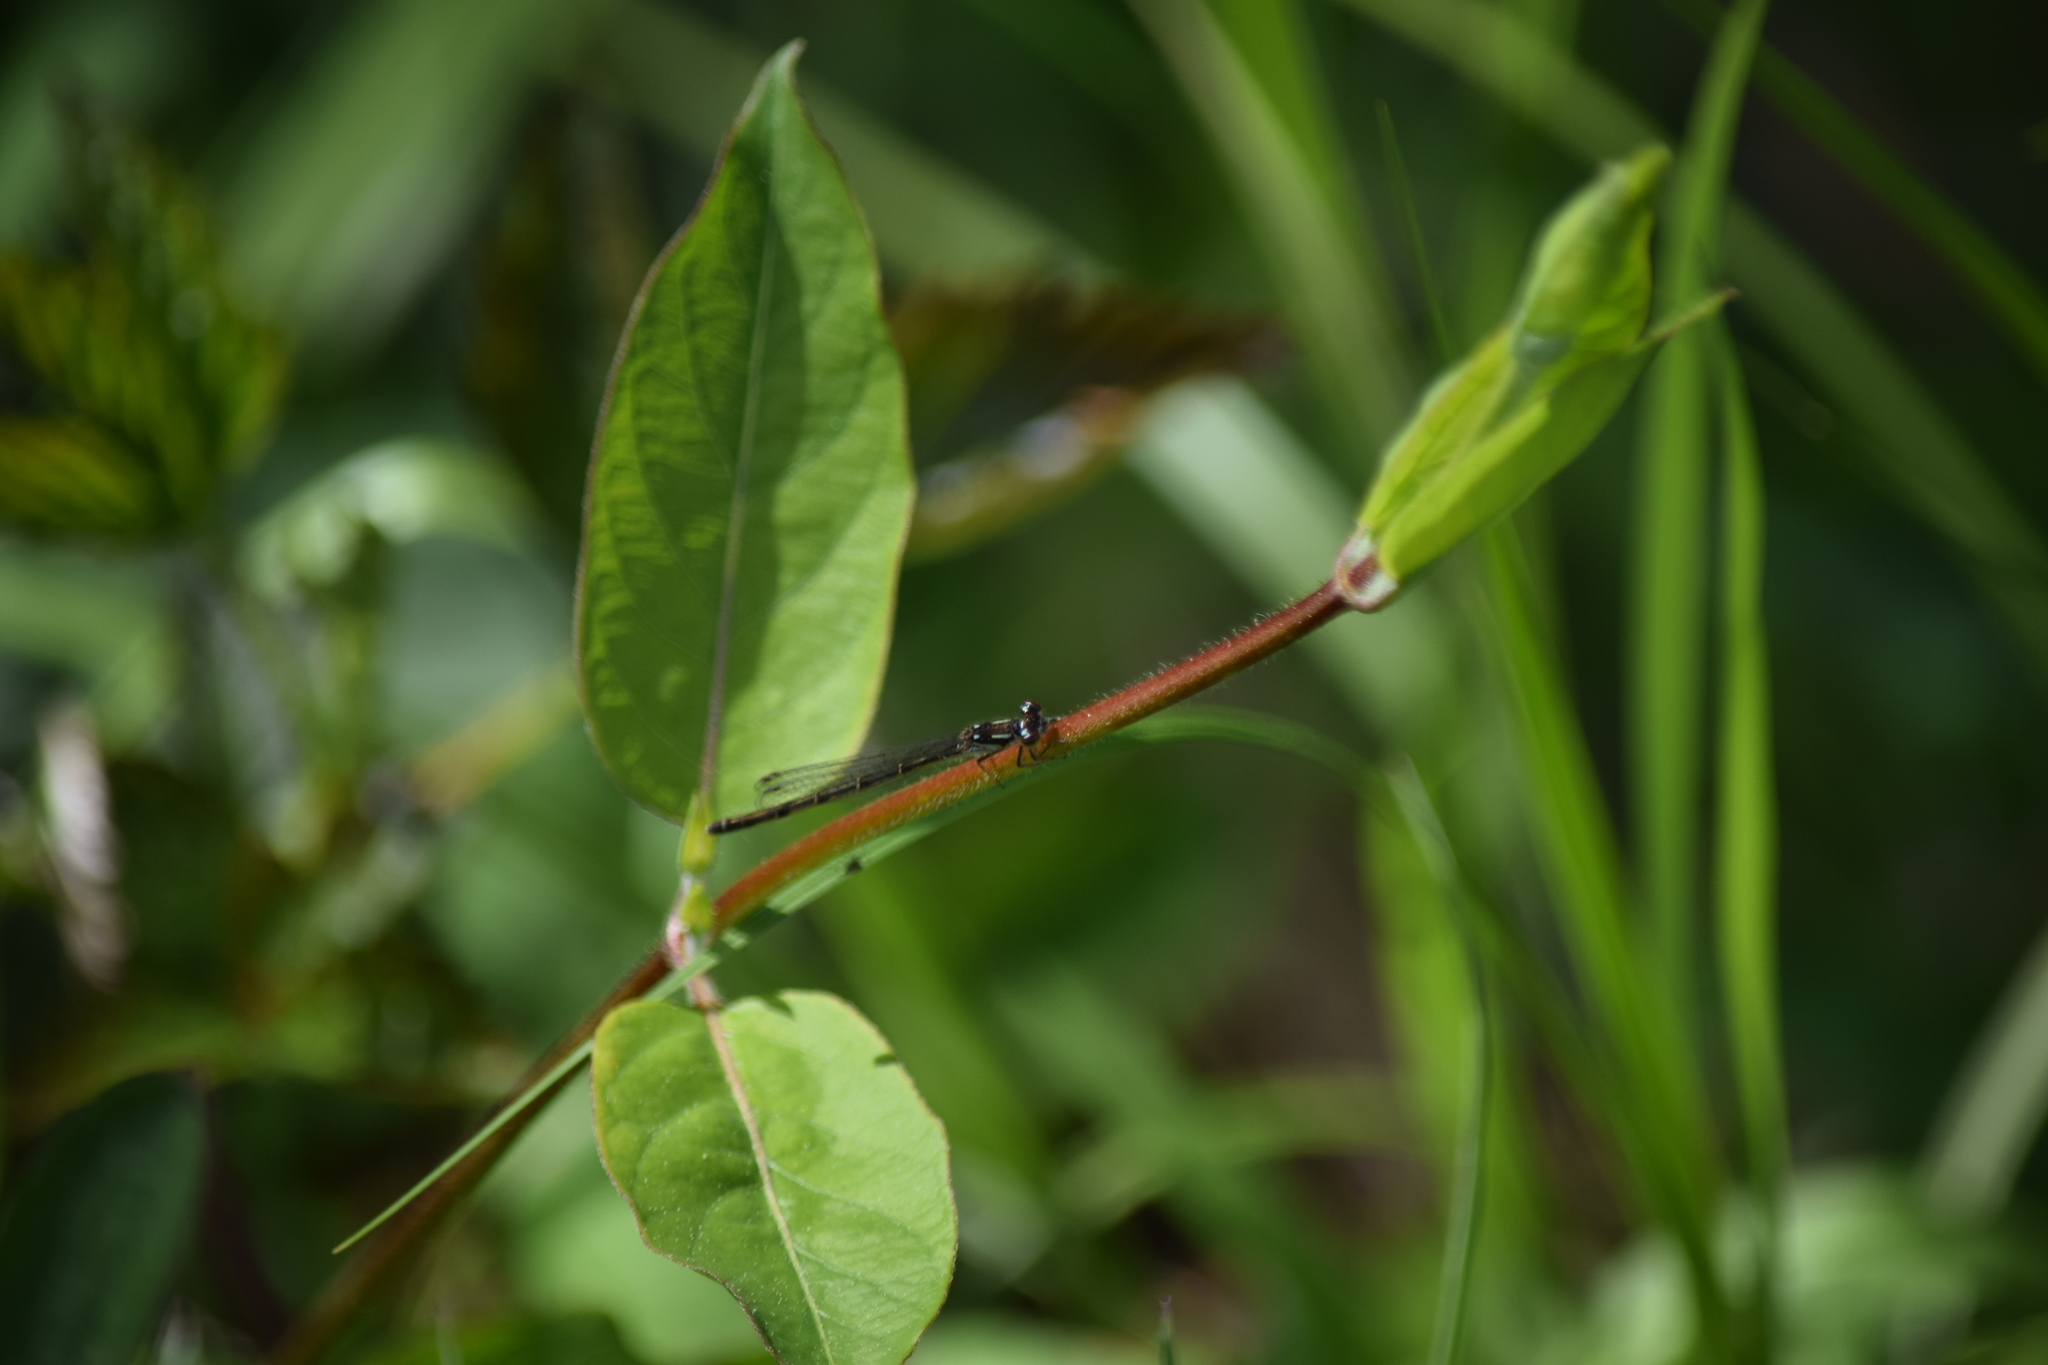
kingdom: Animalia
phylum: Arthropoda
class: Insecta
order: Odonata
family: Coenagrionidae
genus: Ischnura
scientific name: Ischnura posita
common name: Fragile forktail
